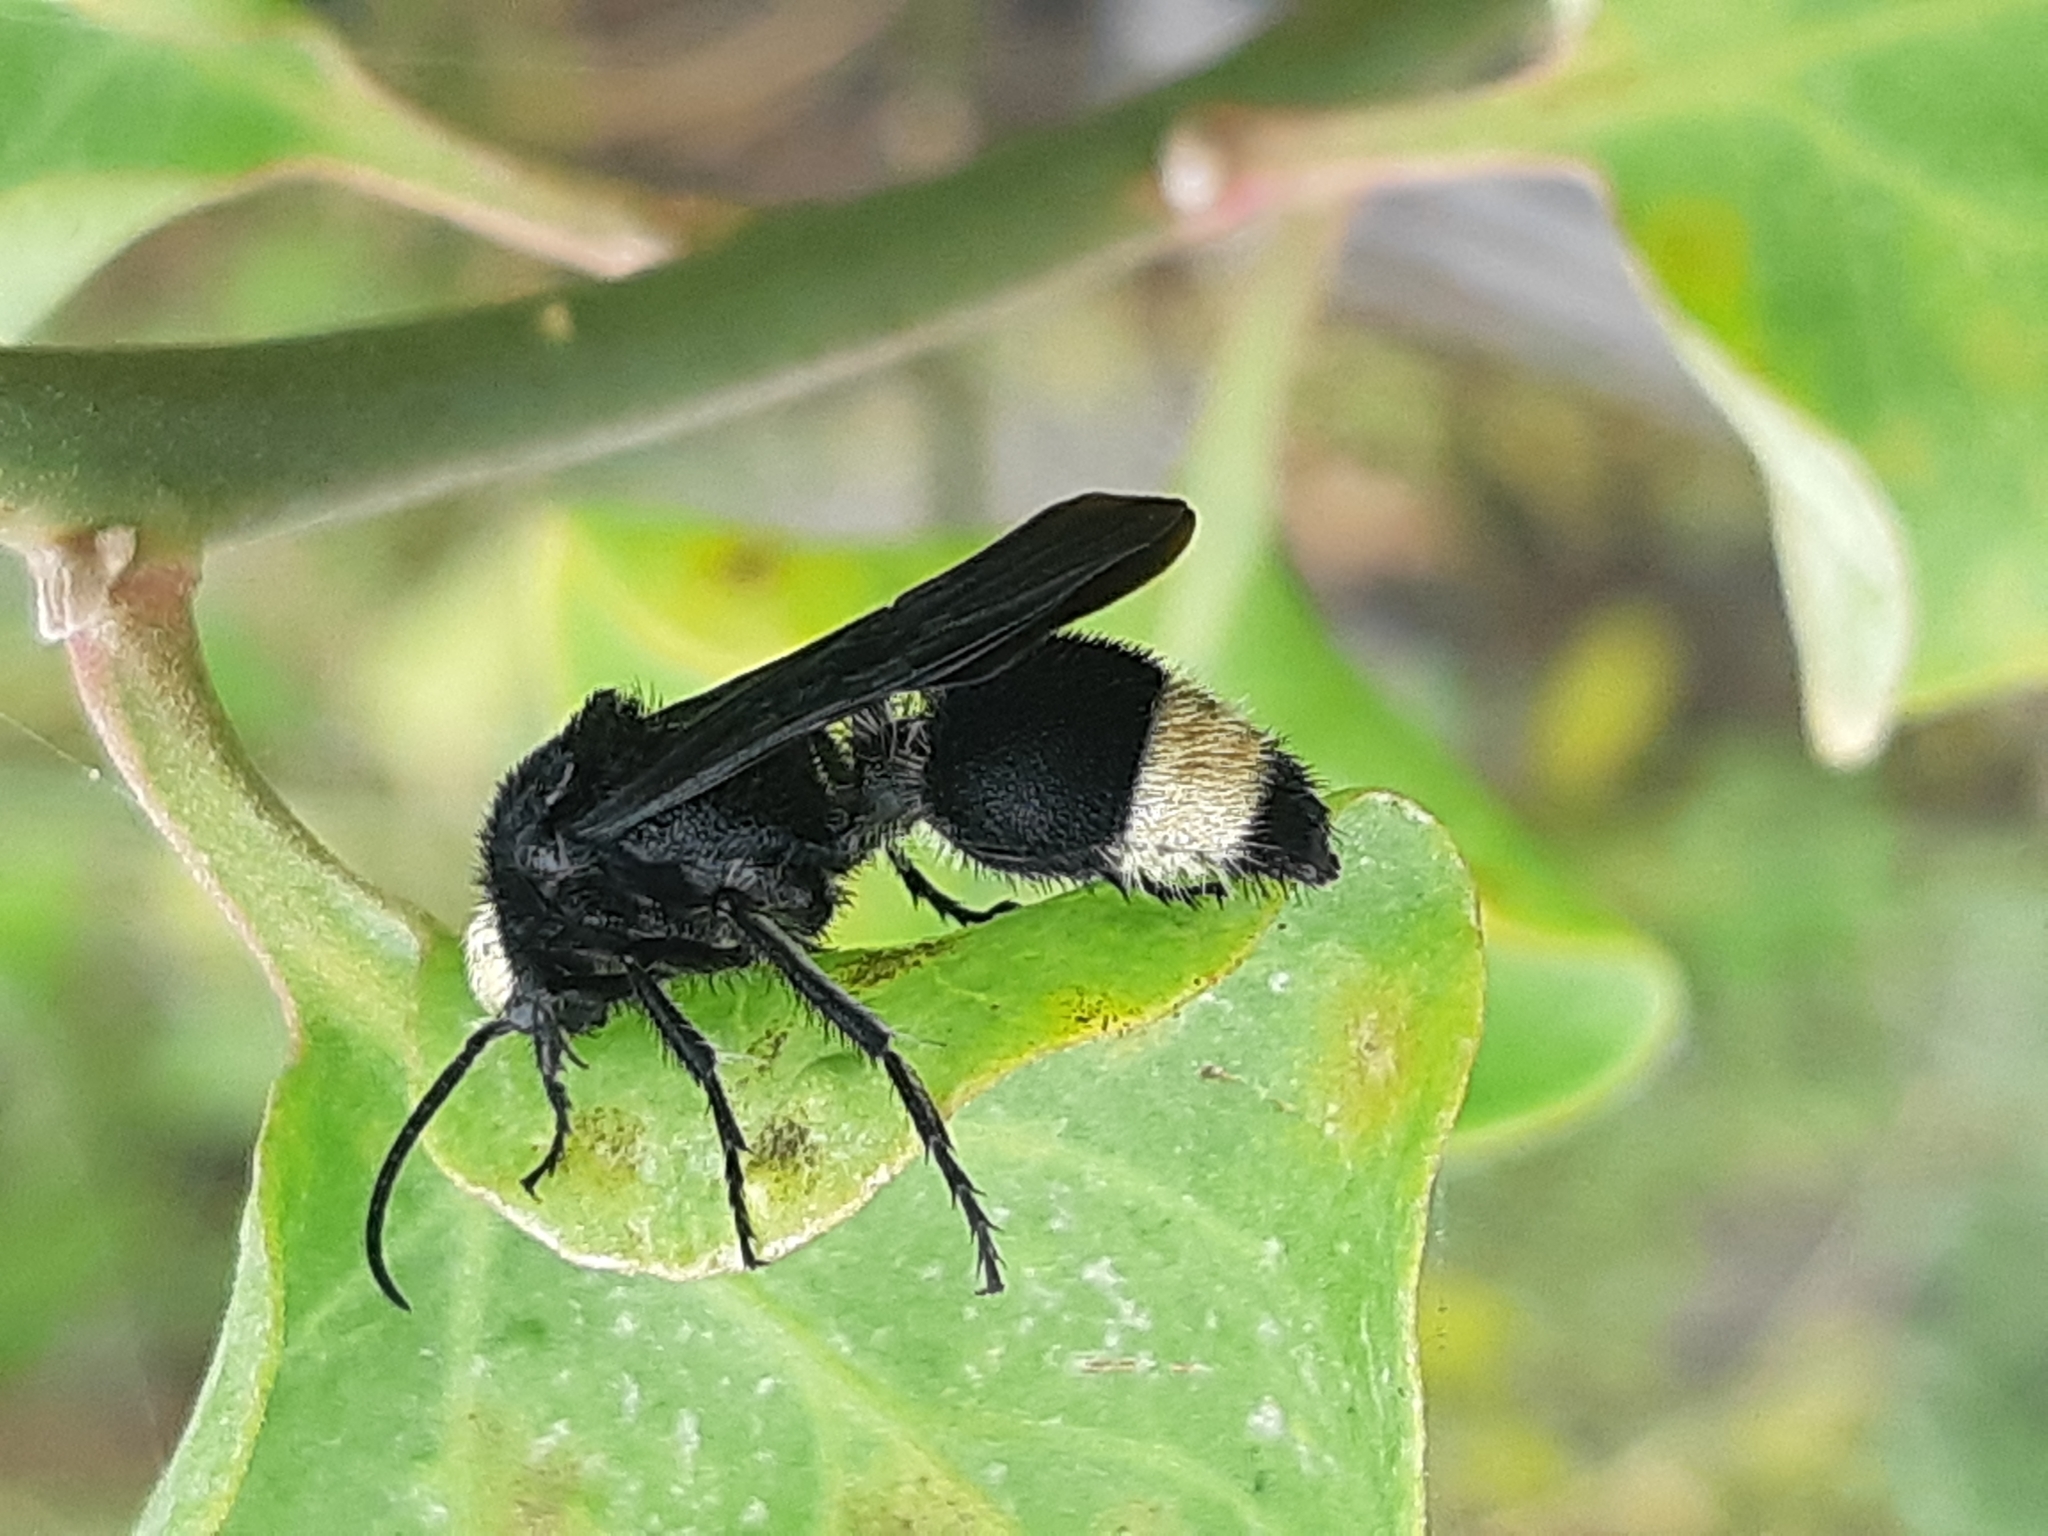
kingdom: Animalia
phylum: Arthropoda
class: Insecta
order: Hymenoptera
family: Mutillidae
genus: Traumatomutilla
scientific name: Traumatomutilla vitelligera
